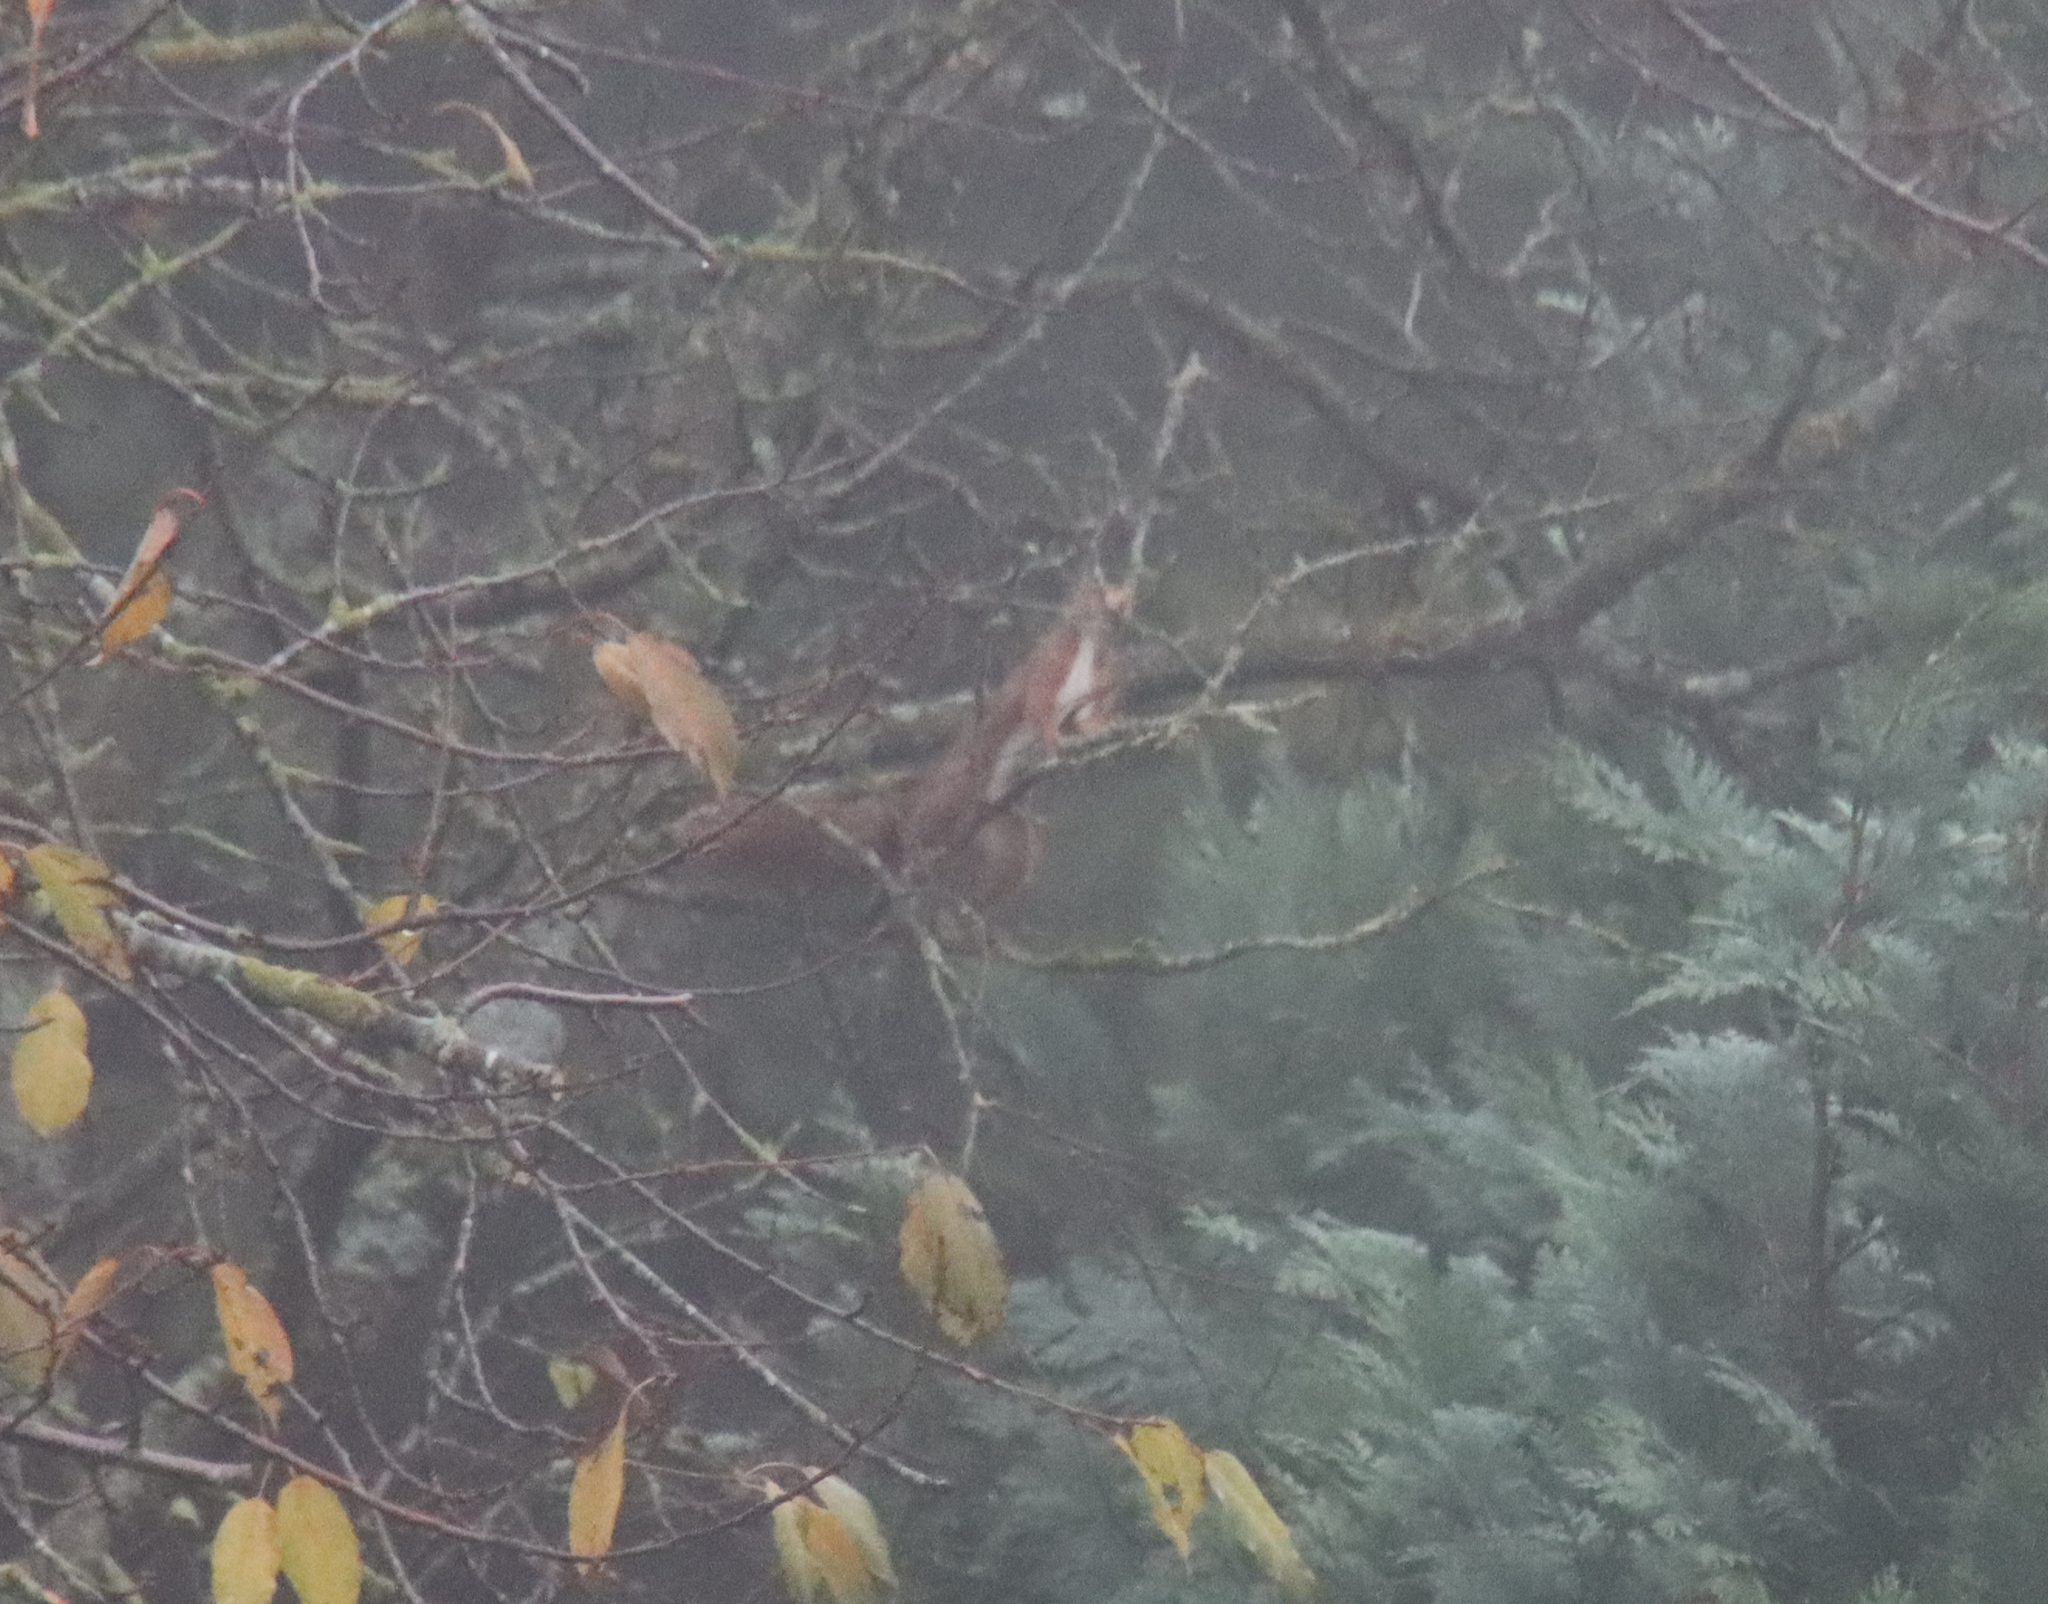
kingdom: Animalia
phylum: Chordata
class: Mammalia
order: Rodentia
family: Sciuridae
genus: Sciurus
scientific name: Sciurus vulgaris
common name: Eurasian red squirrel
